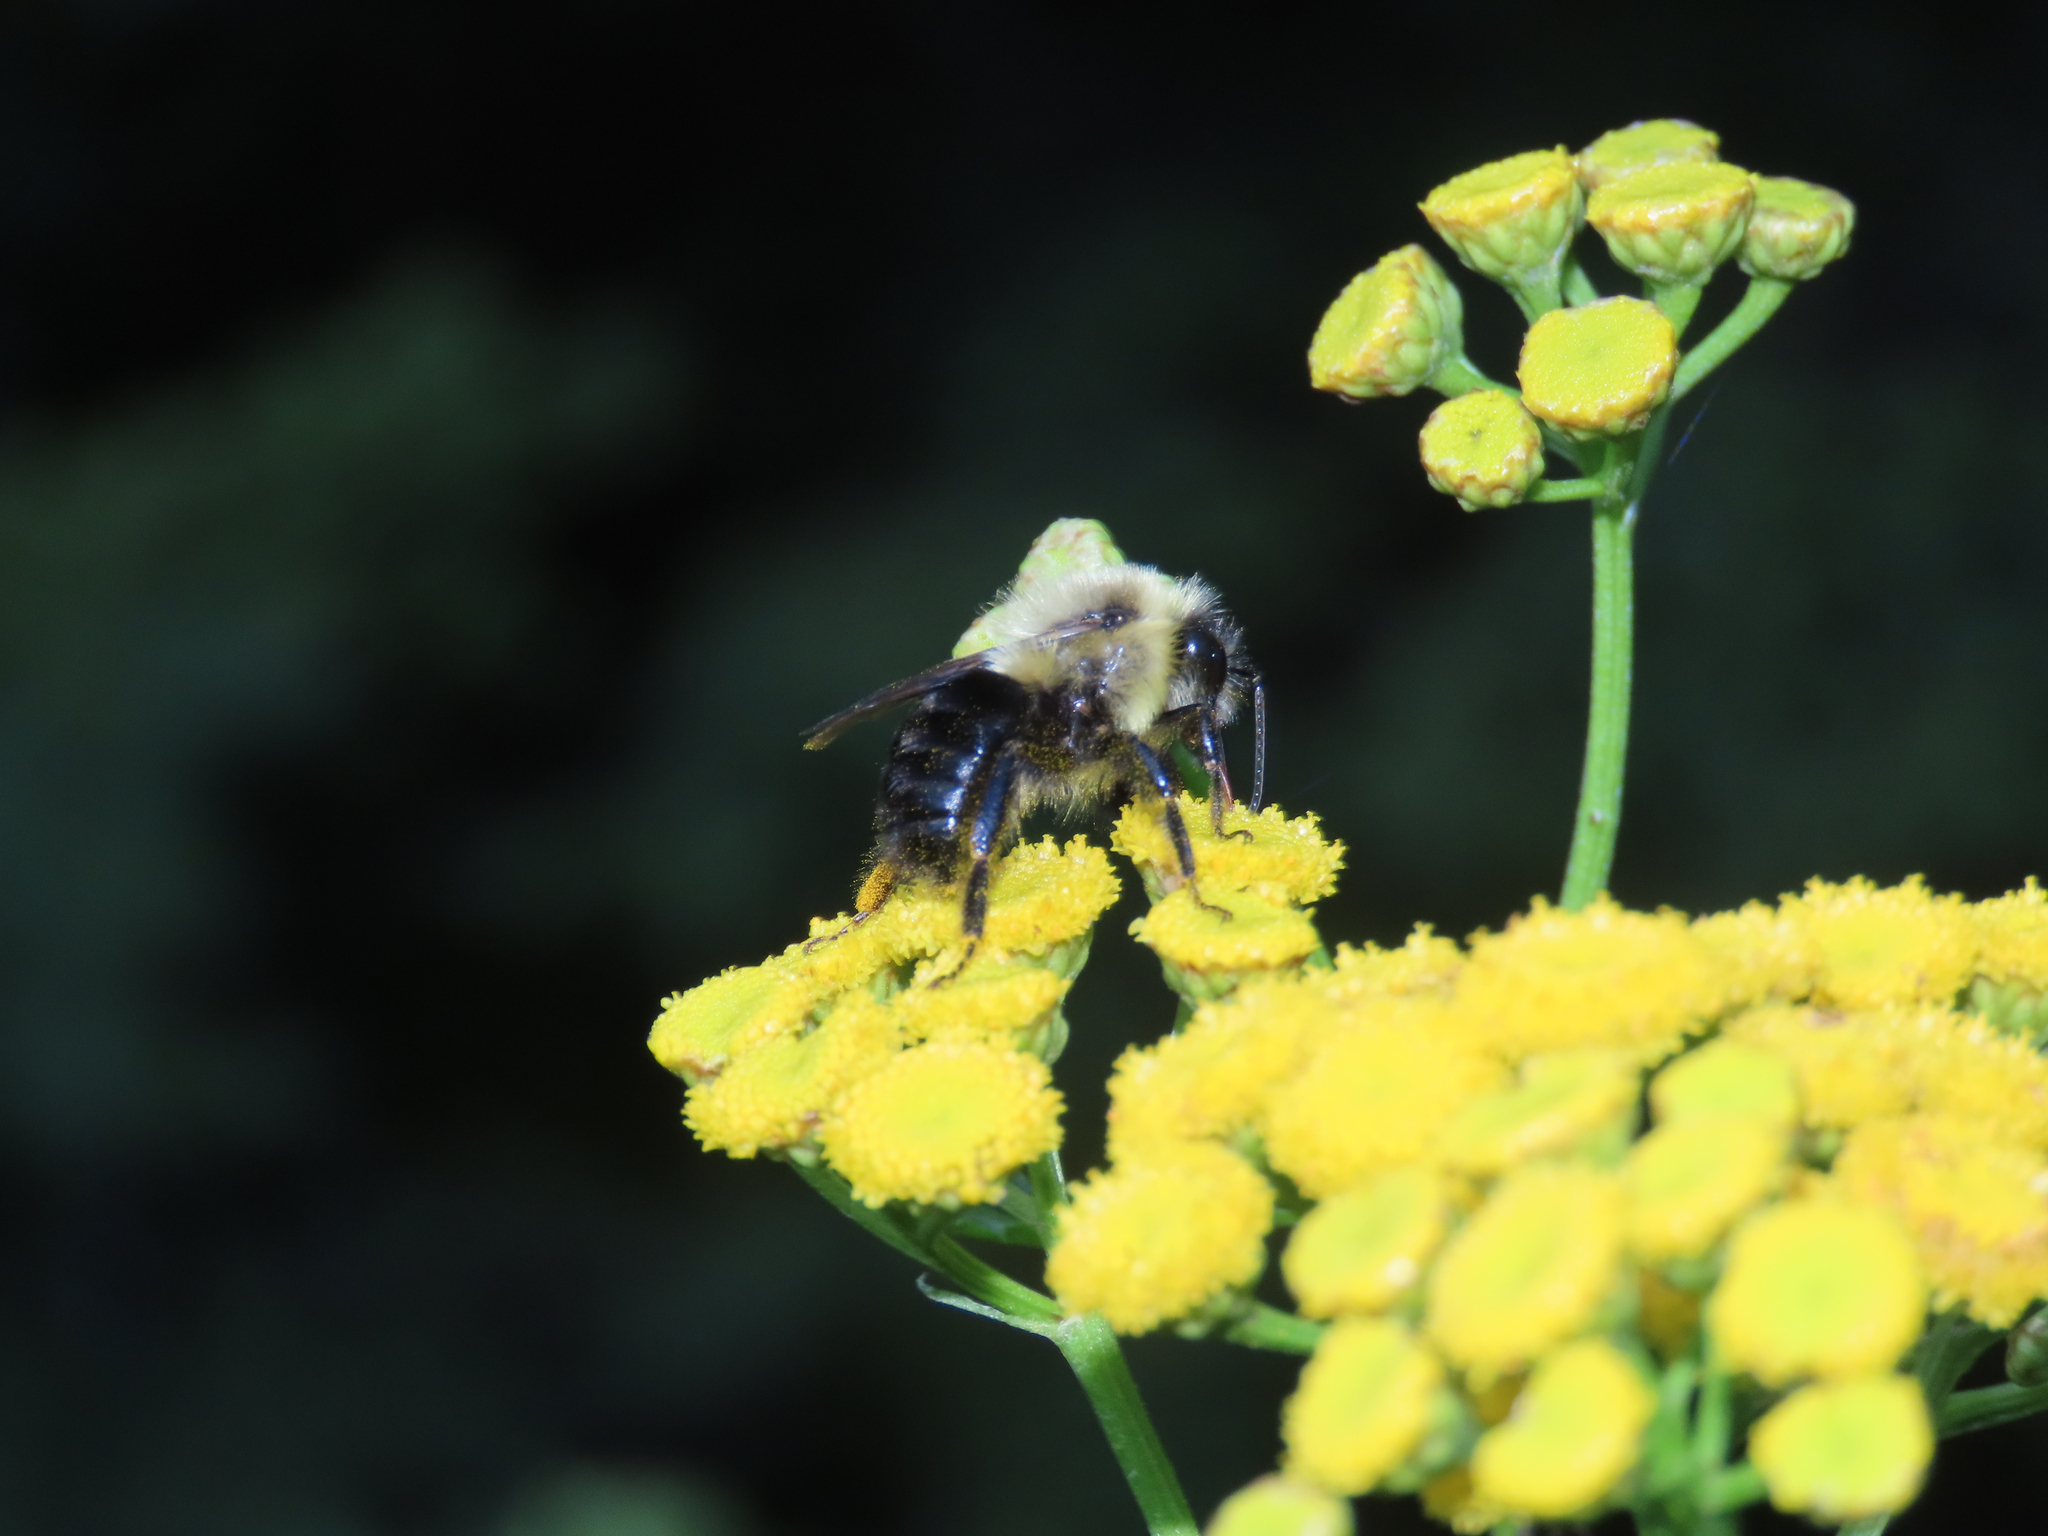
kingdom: Animalia
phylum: Arthropoda
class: Insecta
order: Hymenoptera
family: Apidae
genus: Bombus
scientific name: Bombus impatiens
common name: Common eastern bumble bee
